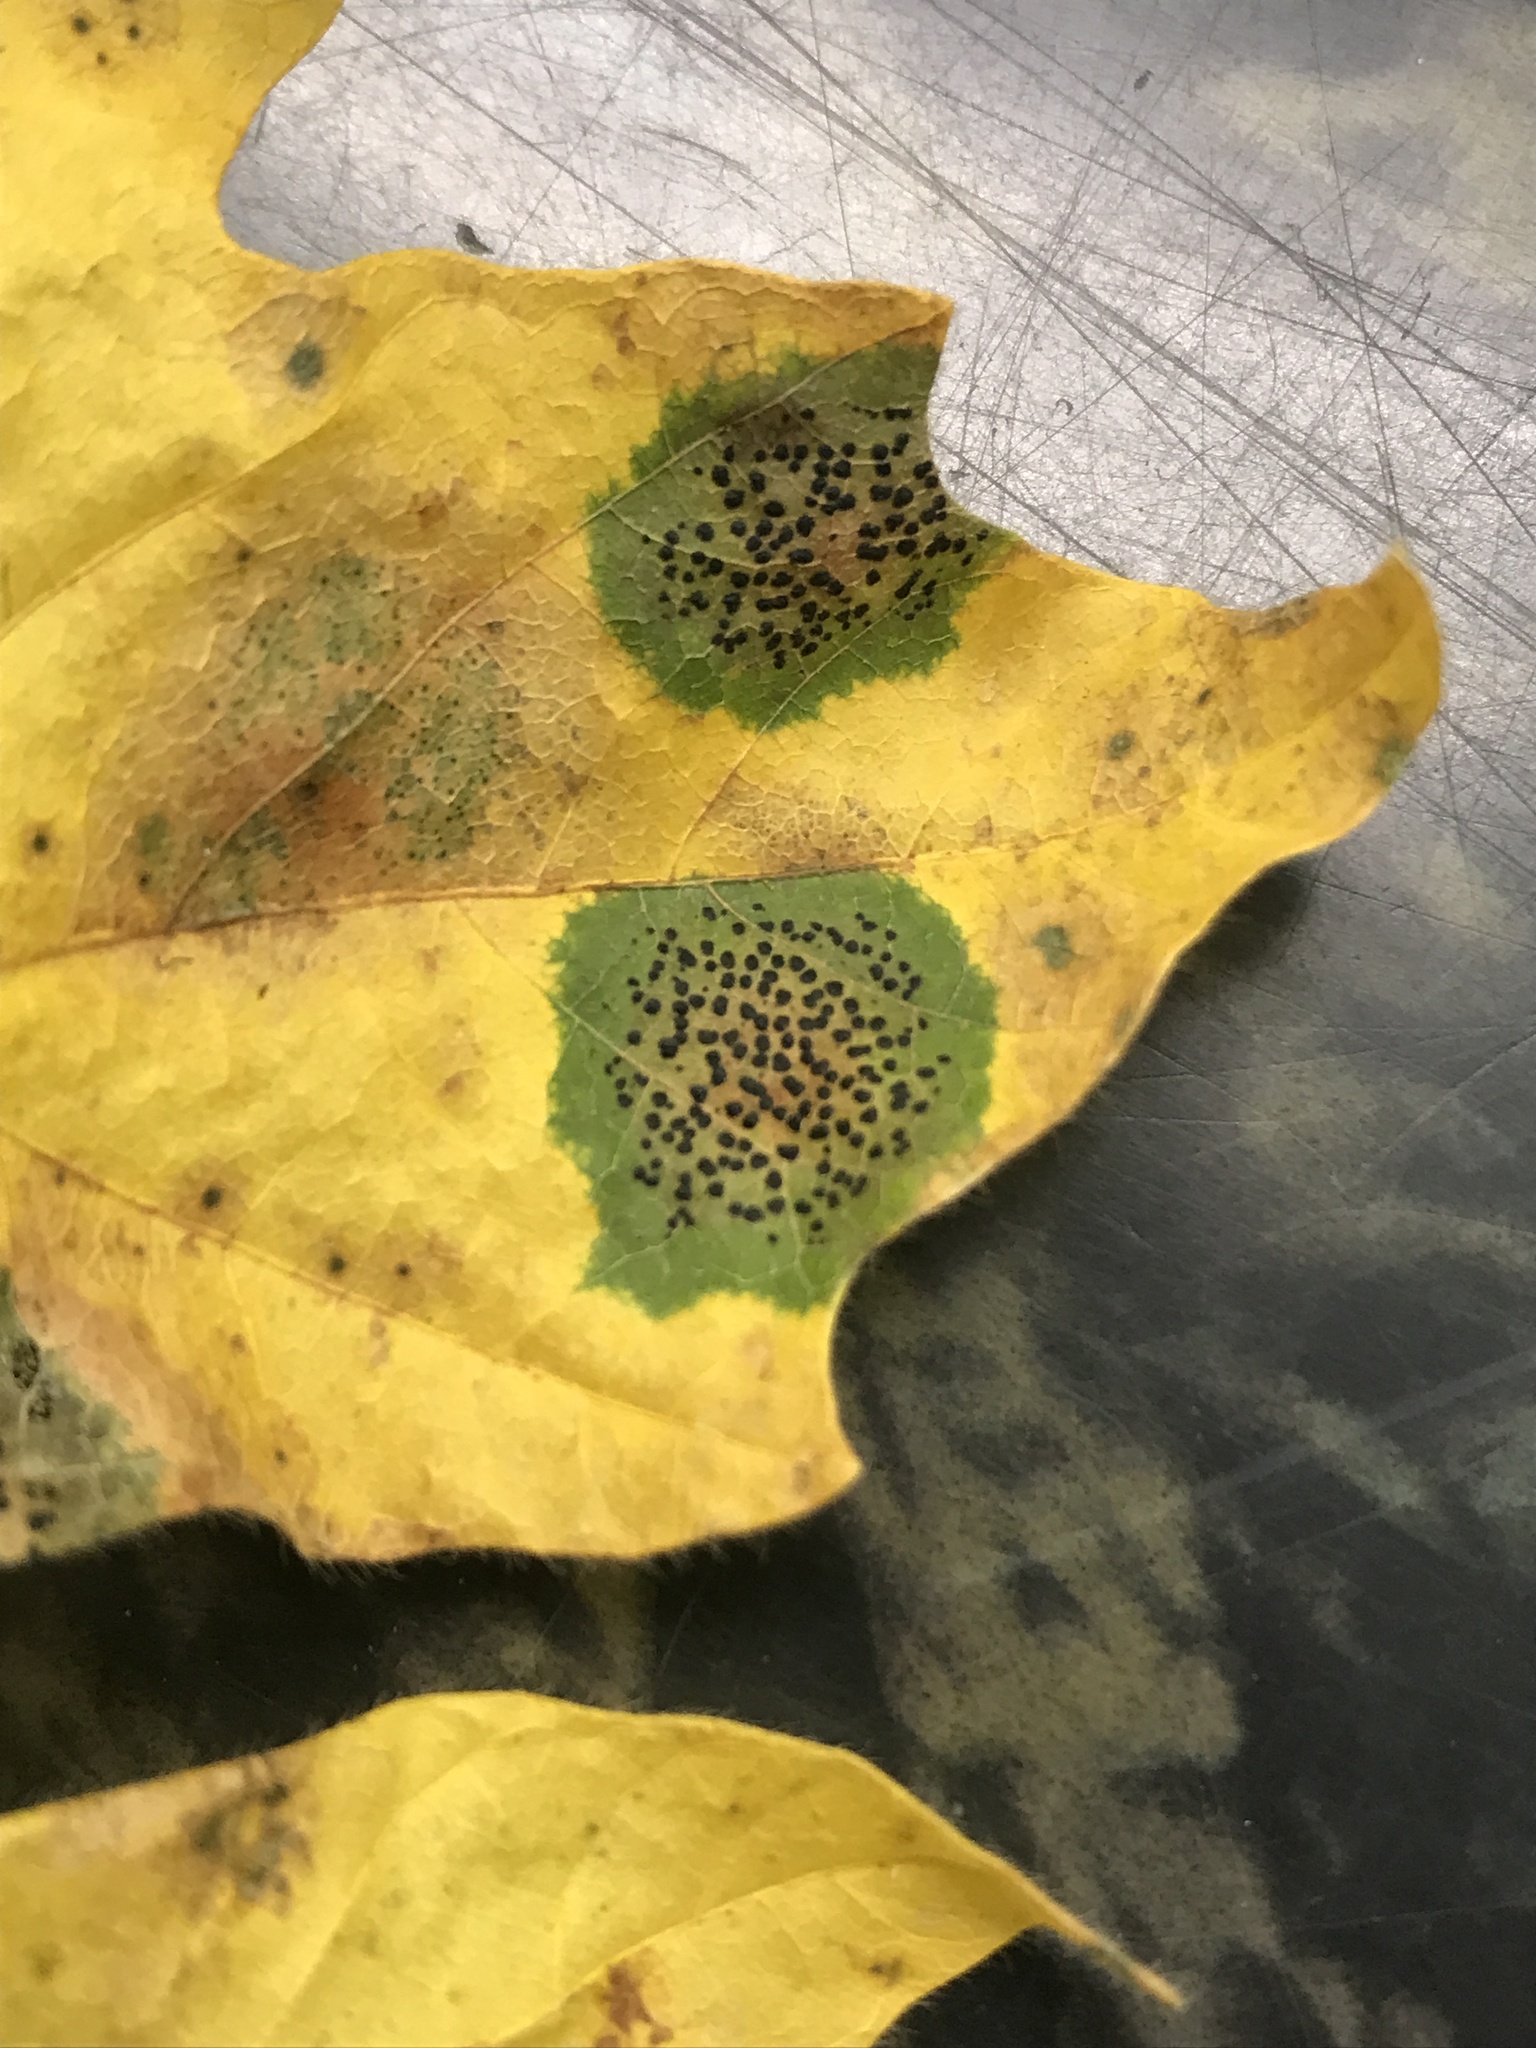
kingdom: Fungi
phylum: Ascomycota
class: Leotiomycetes
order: Rhytismatales
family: Rhytismataceae
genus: Rhytisma
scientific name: Rhytisma punctatum
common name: Speckled tar spot
